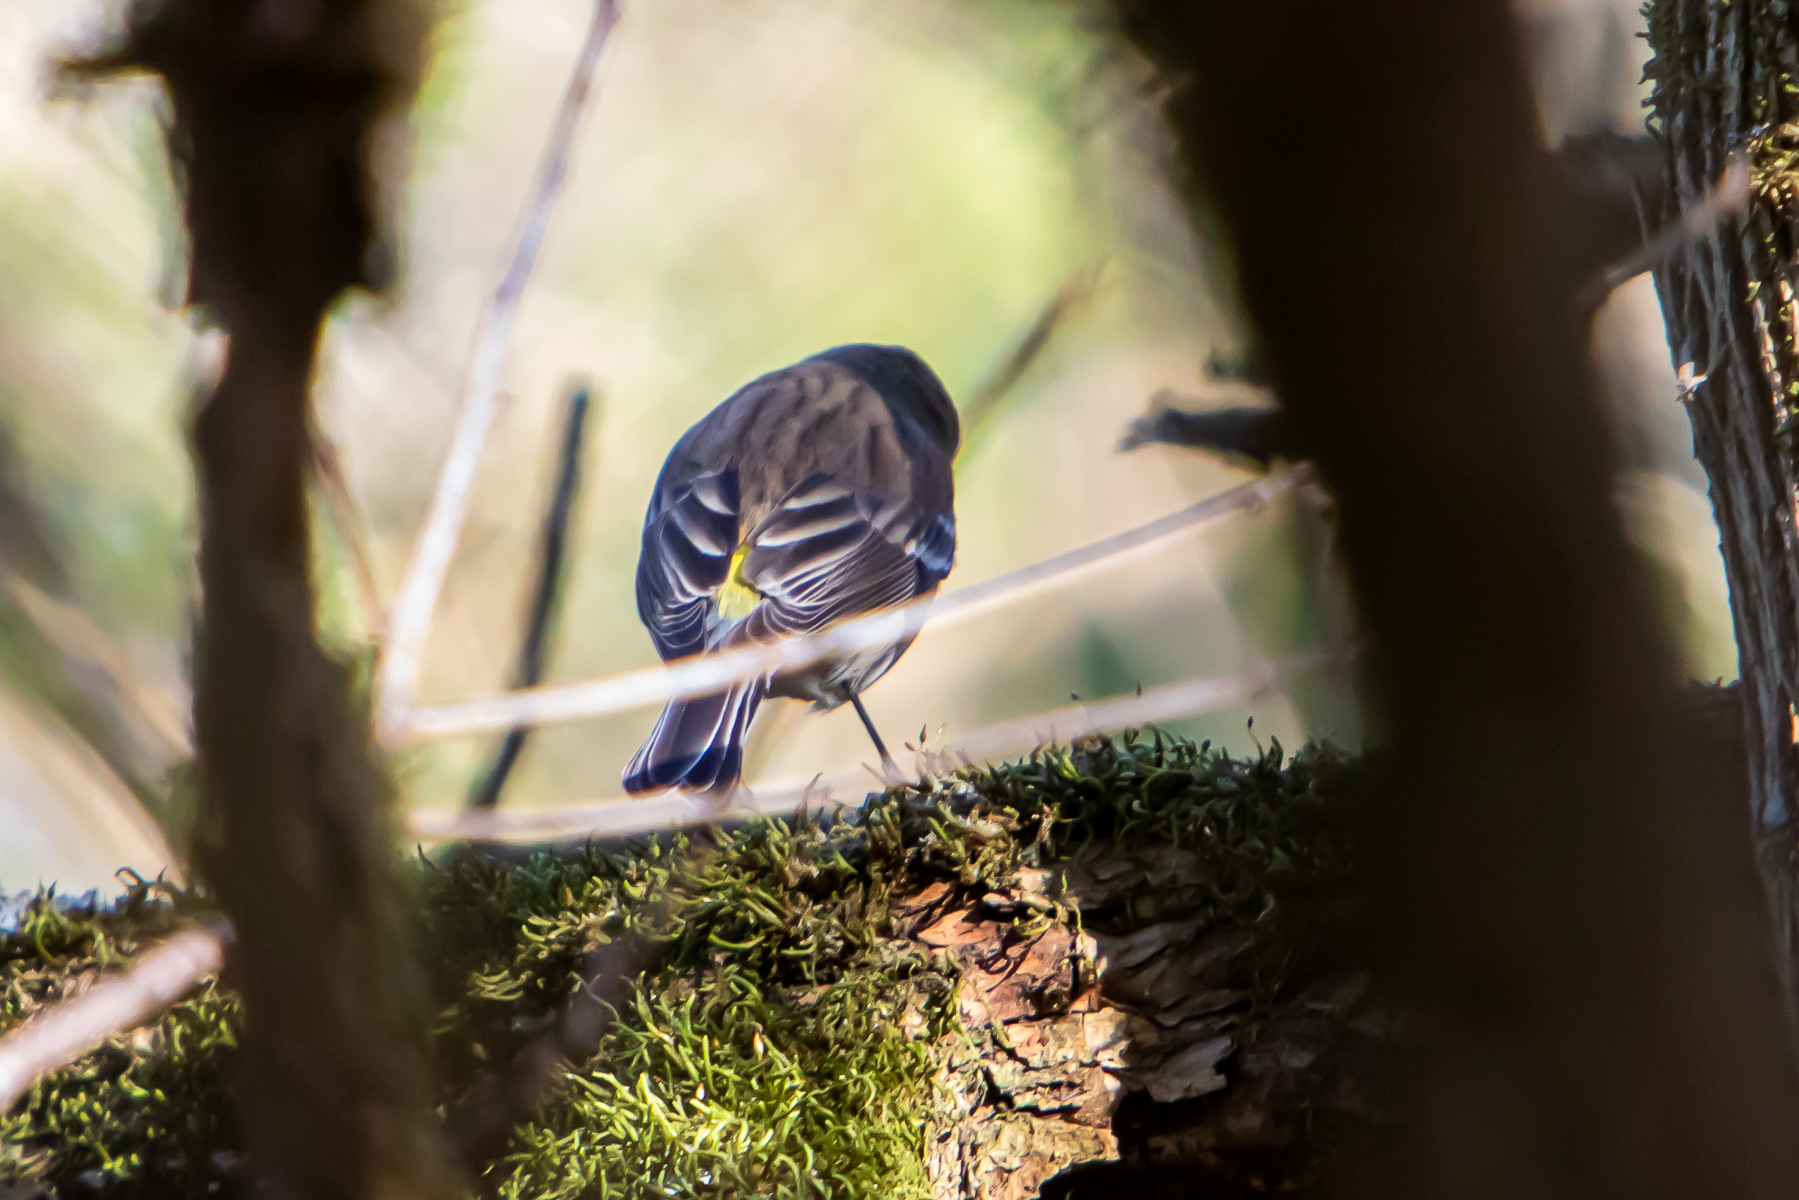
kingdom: Animalia
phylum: Chordata
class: Aves
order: Passeriformes
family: Parulidae
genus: Setophaga
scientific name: Setophaga coronata
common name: Myrtle warbler
